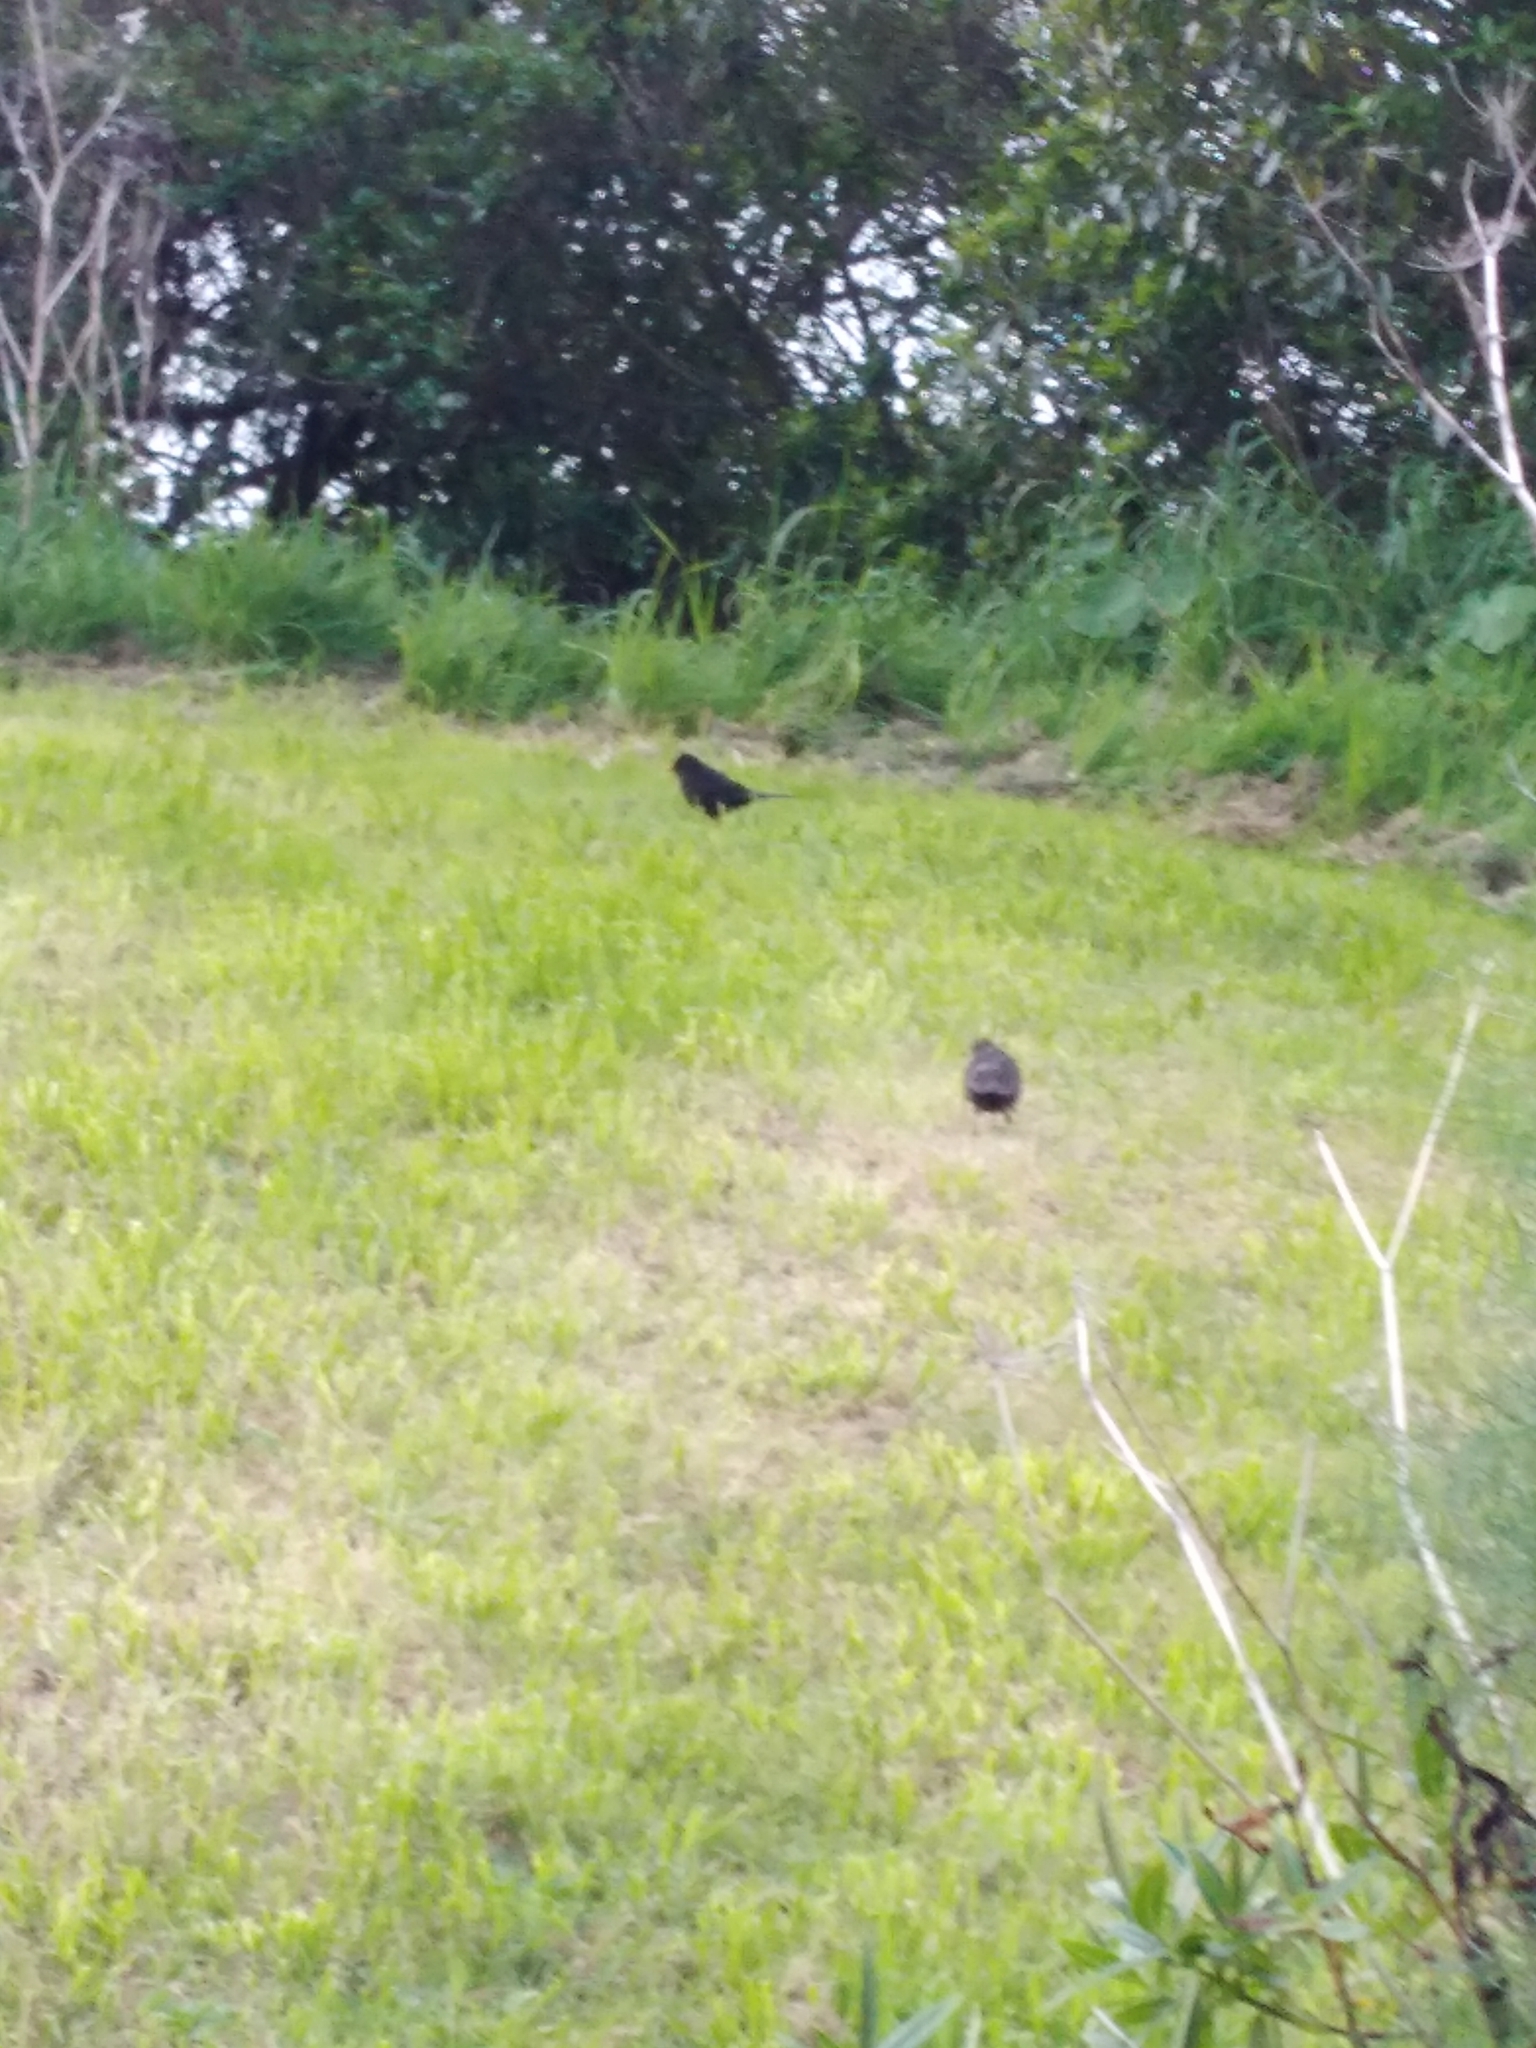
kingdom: Animalia
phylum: Chordata
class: Aves
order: Passeriformes
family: Turdidae
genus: Turdus
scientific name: Turdus merula
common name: Common blackbird
